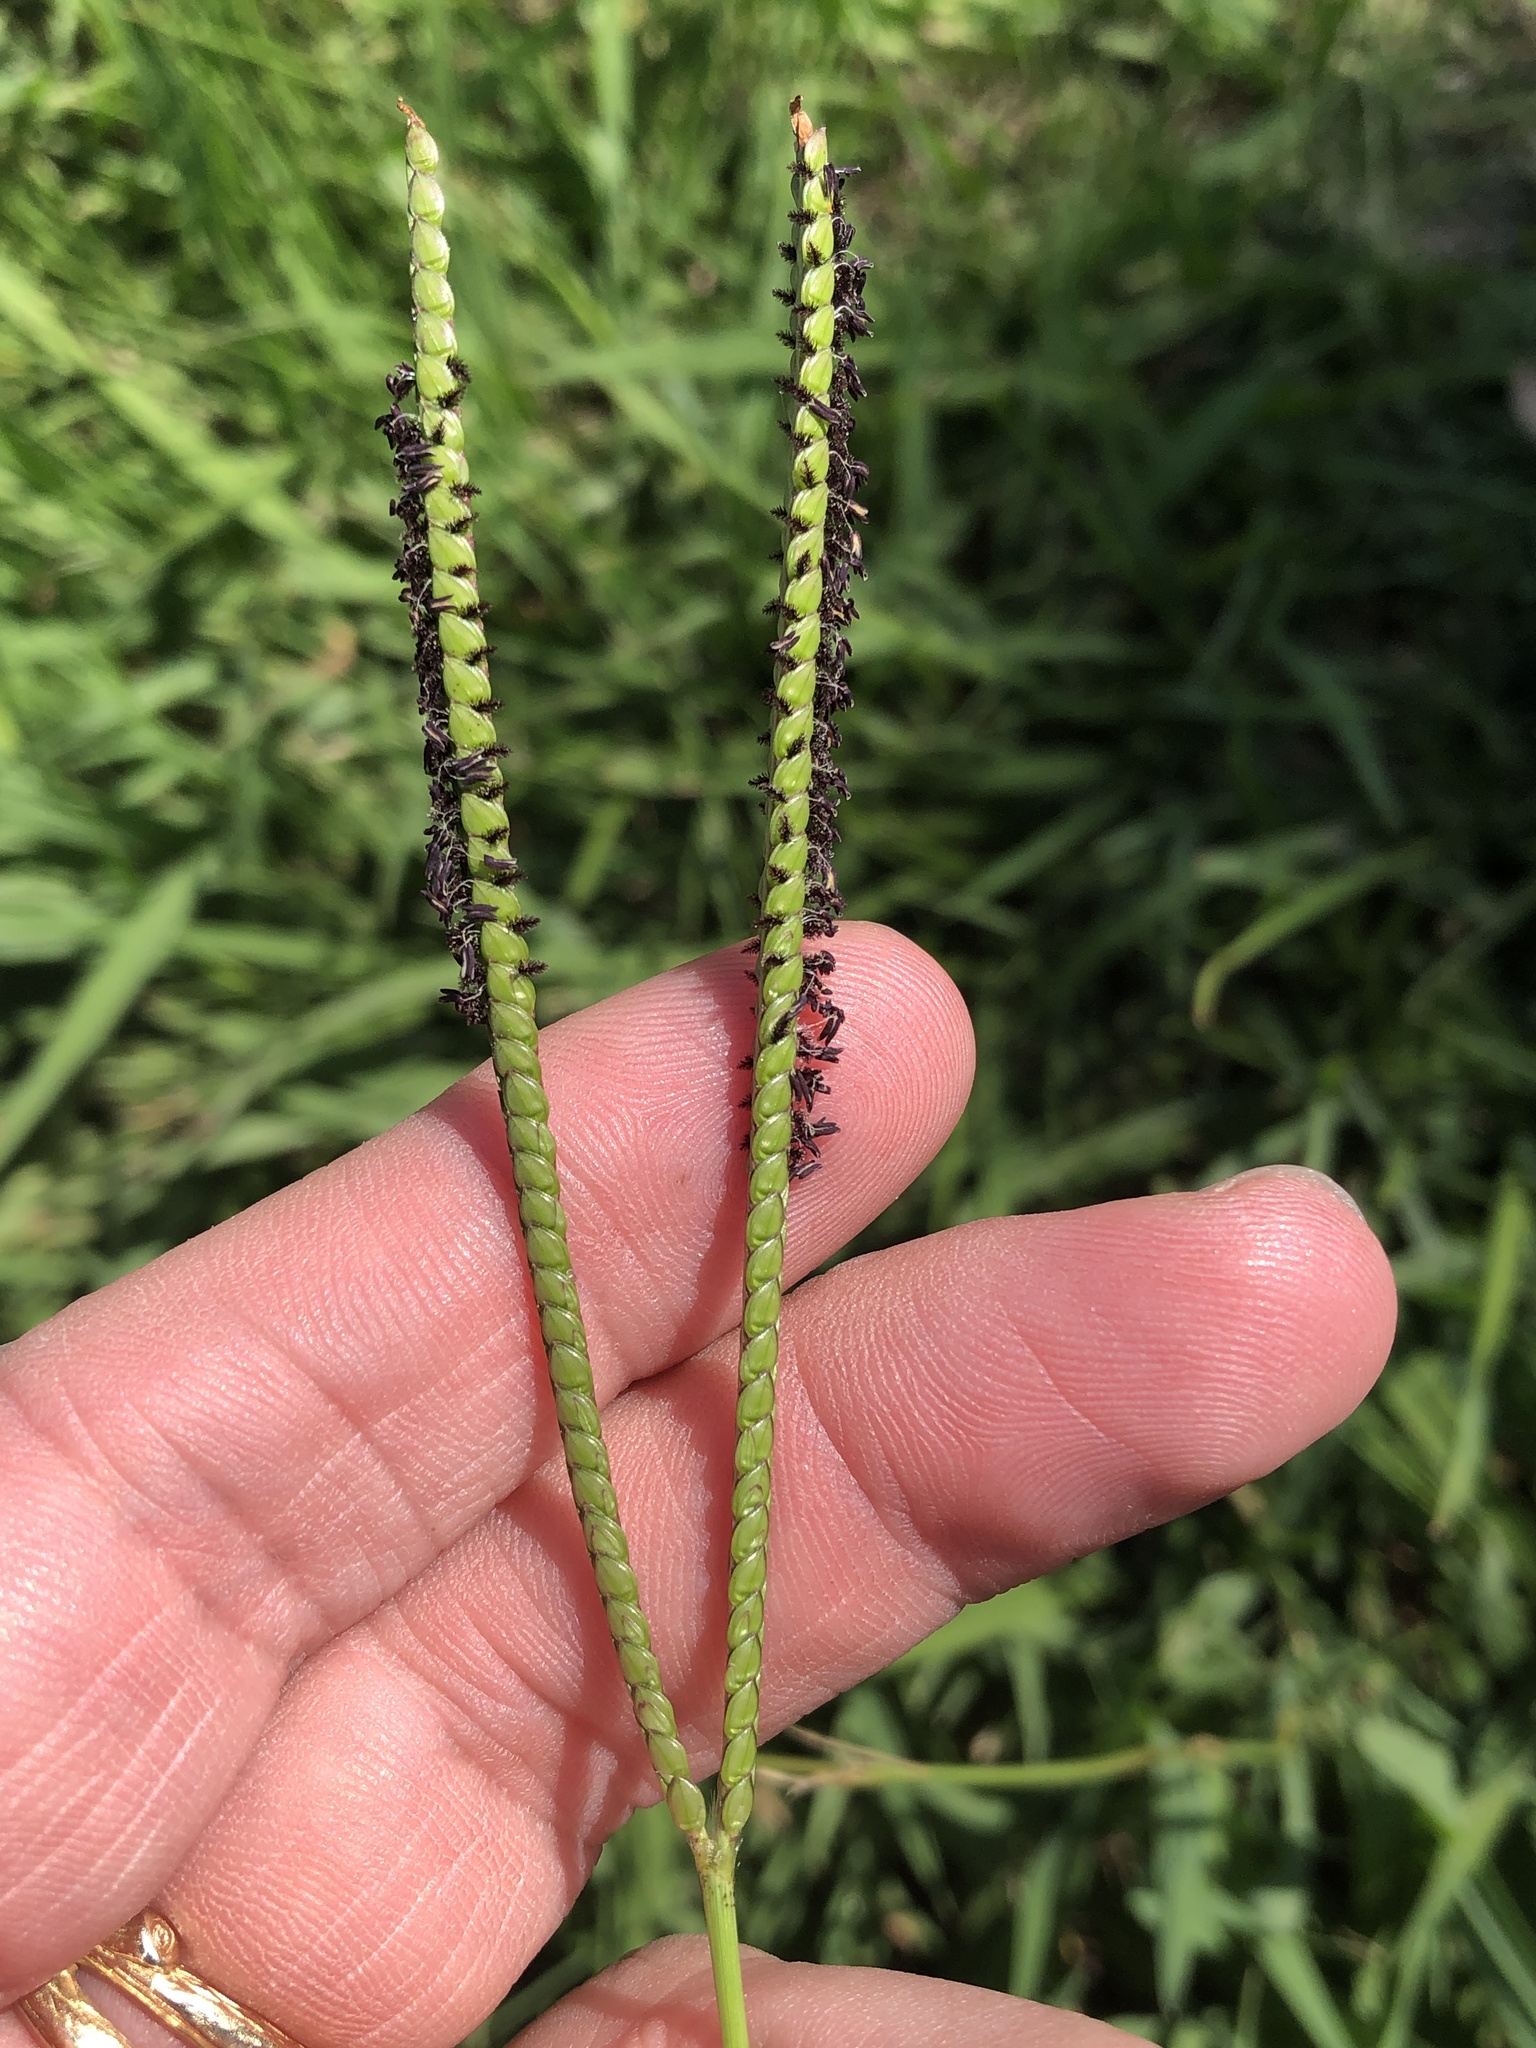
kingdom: Plantae
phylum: Tracheophyta
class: Liliopsida
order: Poales
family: Poaceae
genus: Paspalum
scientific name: Paspalum notatum
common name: Bahiagrass
